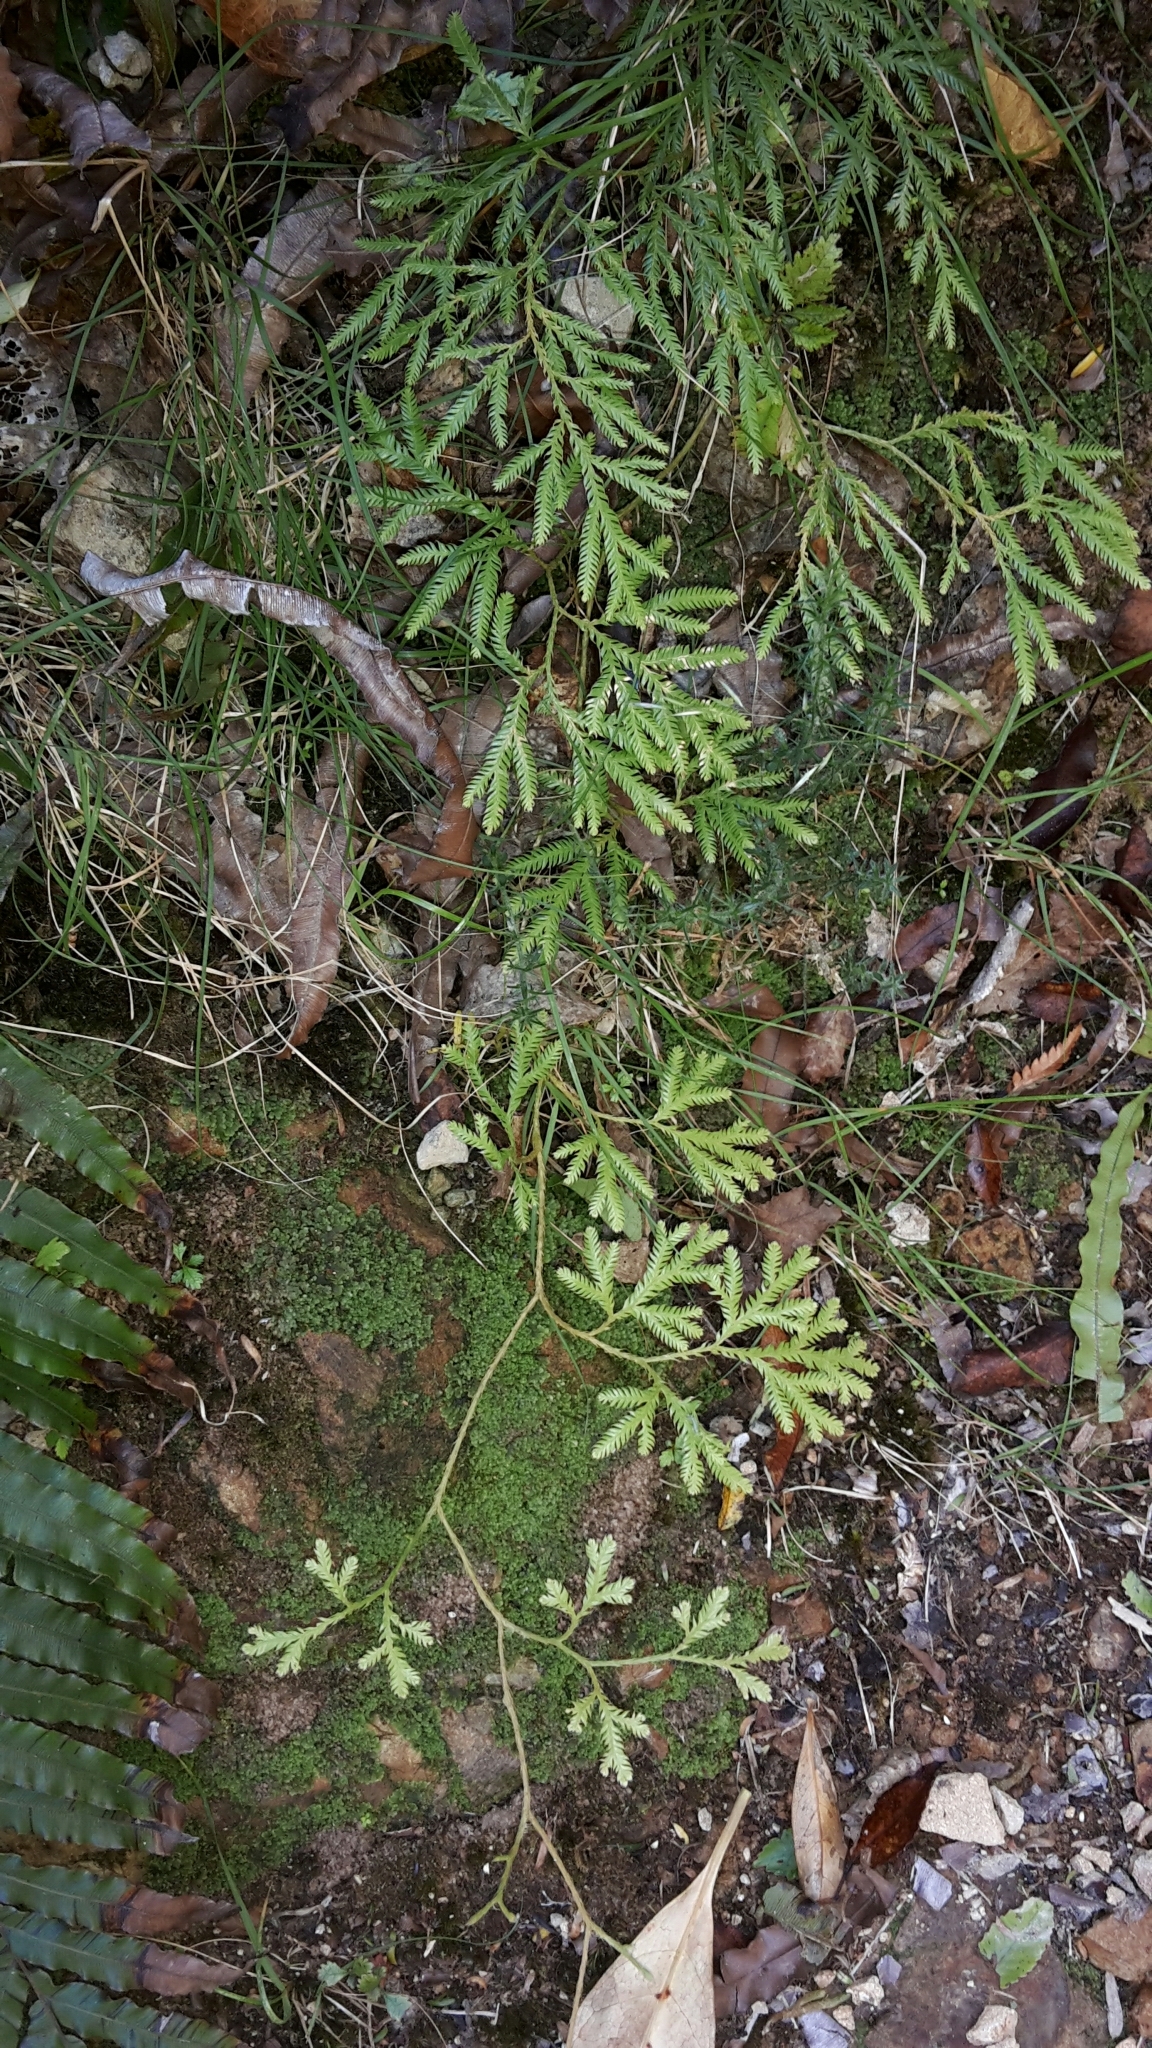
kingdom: Plantae
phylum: Tracheophyta
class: Lycopodiopsida
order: Lycopodiales
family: Lycopodiaceae
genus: Lycopodium
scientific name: Lycopodium volubile
